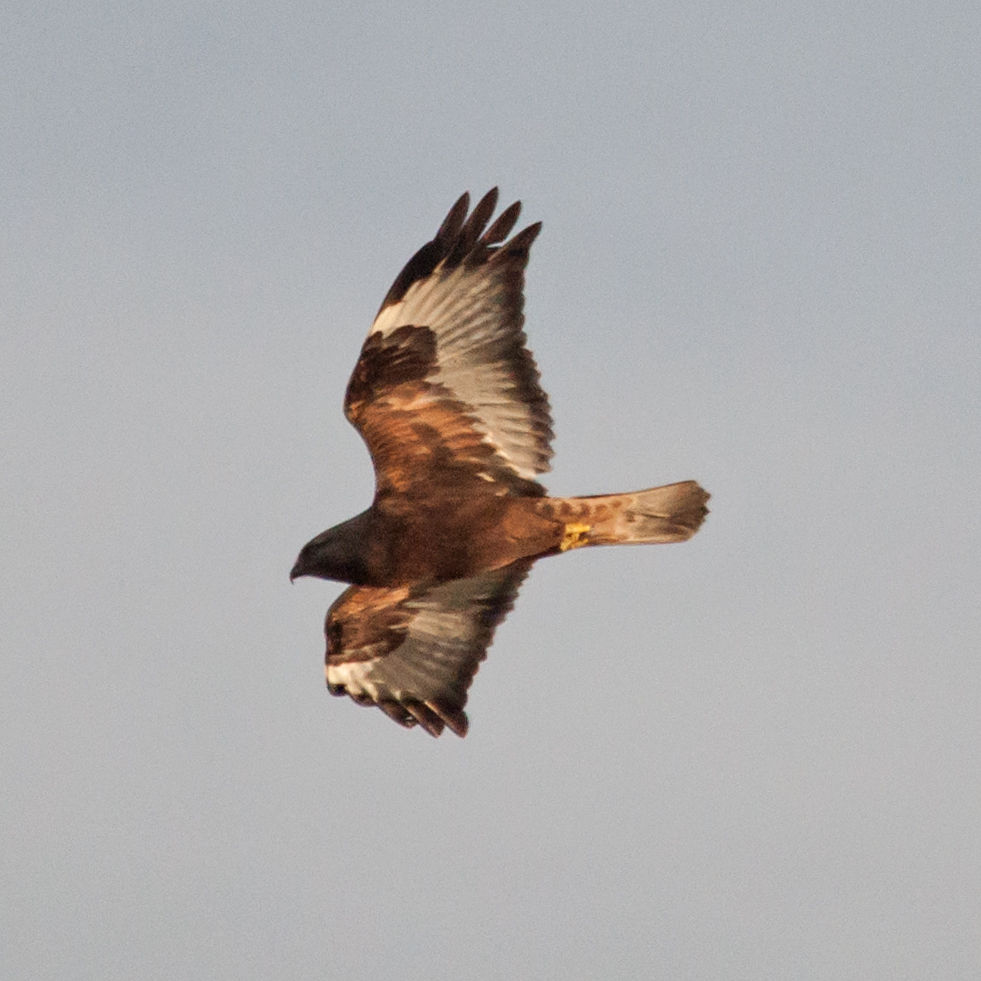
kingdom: Animalia
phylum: Chordata
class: Aves
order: Accipitriformes
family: Accipitridae
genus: Buteo
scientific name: Buteo lagopus
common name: Rough-legged buzzard
